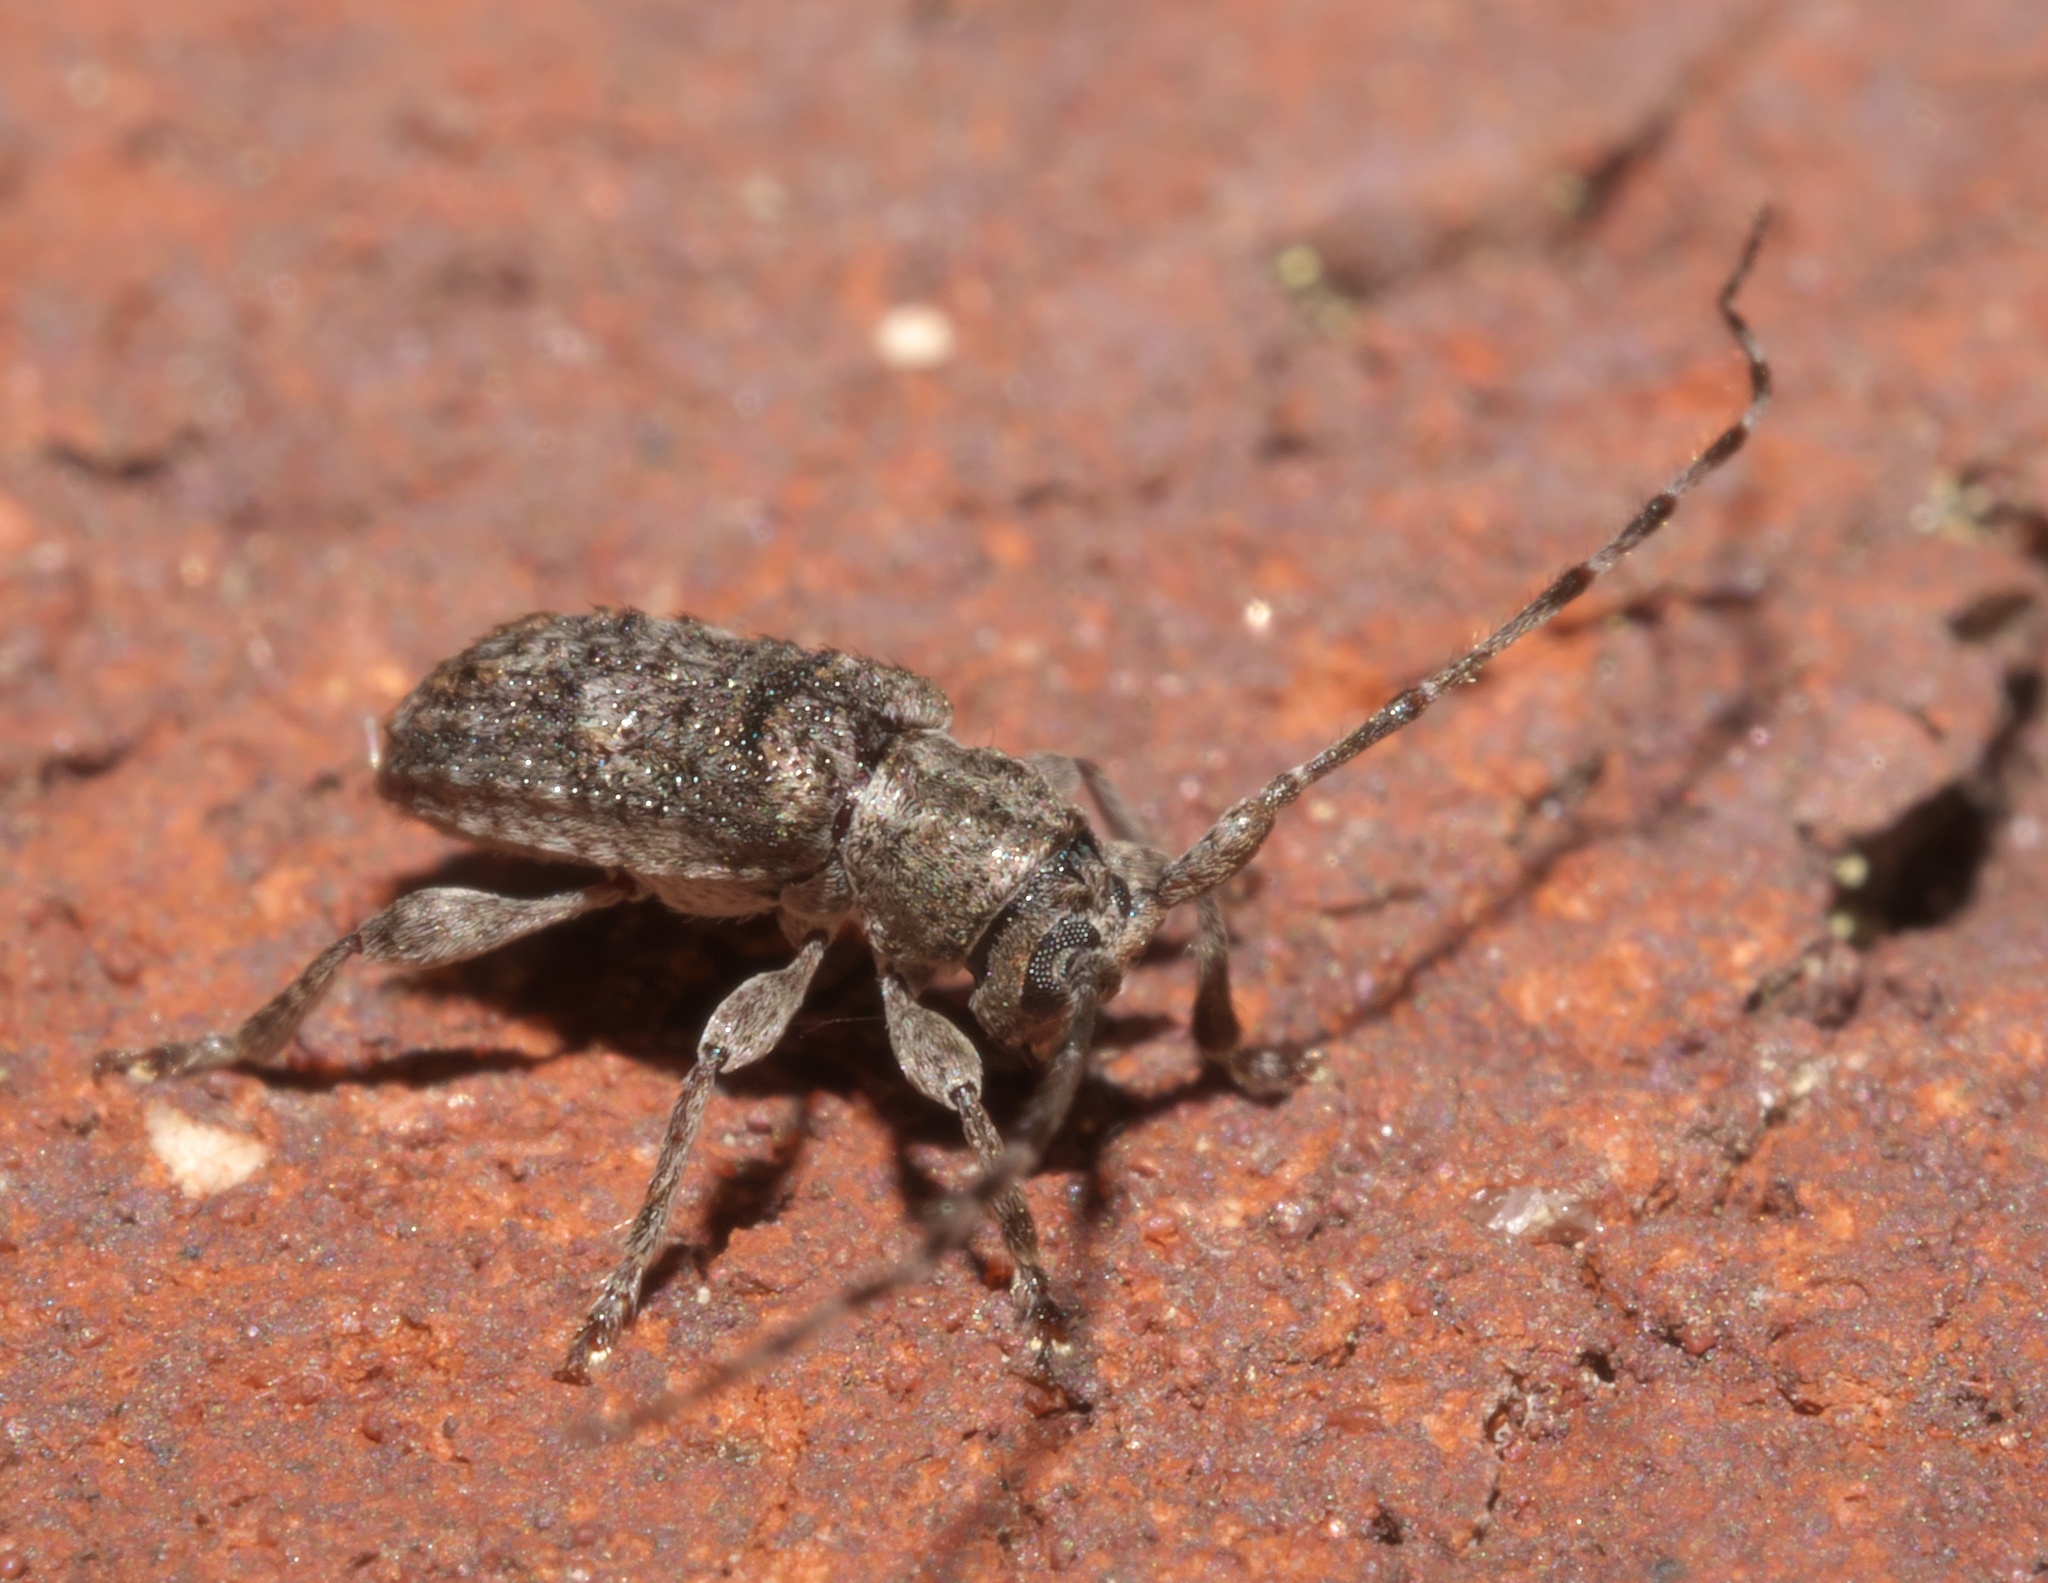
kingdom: Animalia
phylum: Arthropoda
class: Insecta
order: Coleoptera
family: Cerambycidae
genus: Ecyrus
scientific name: Ecyrus dasycerus
